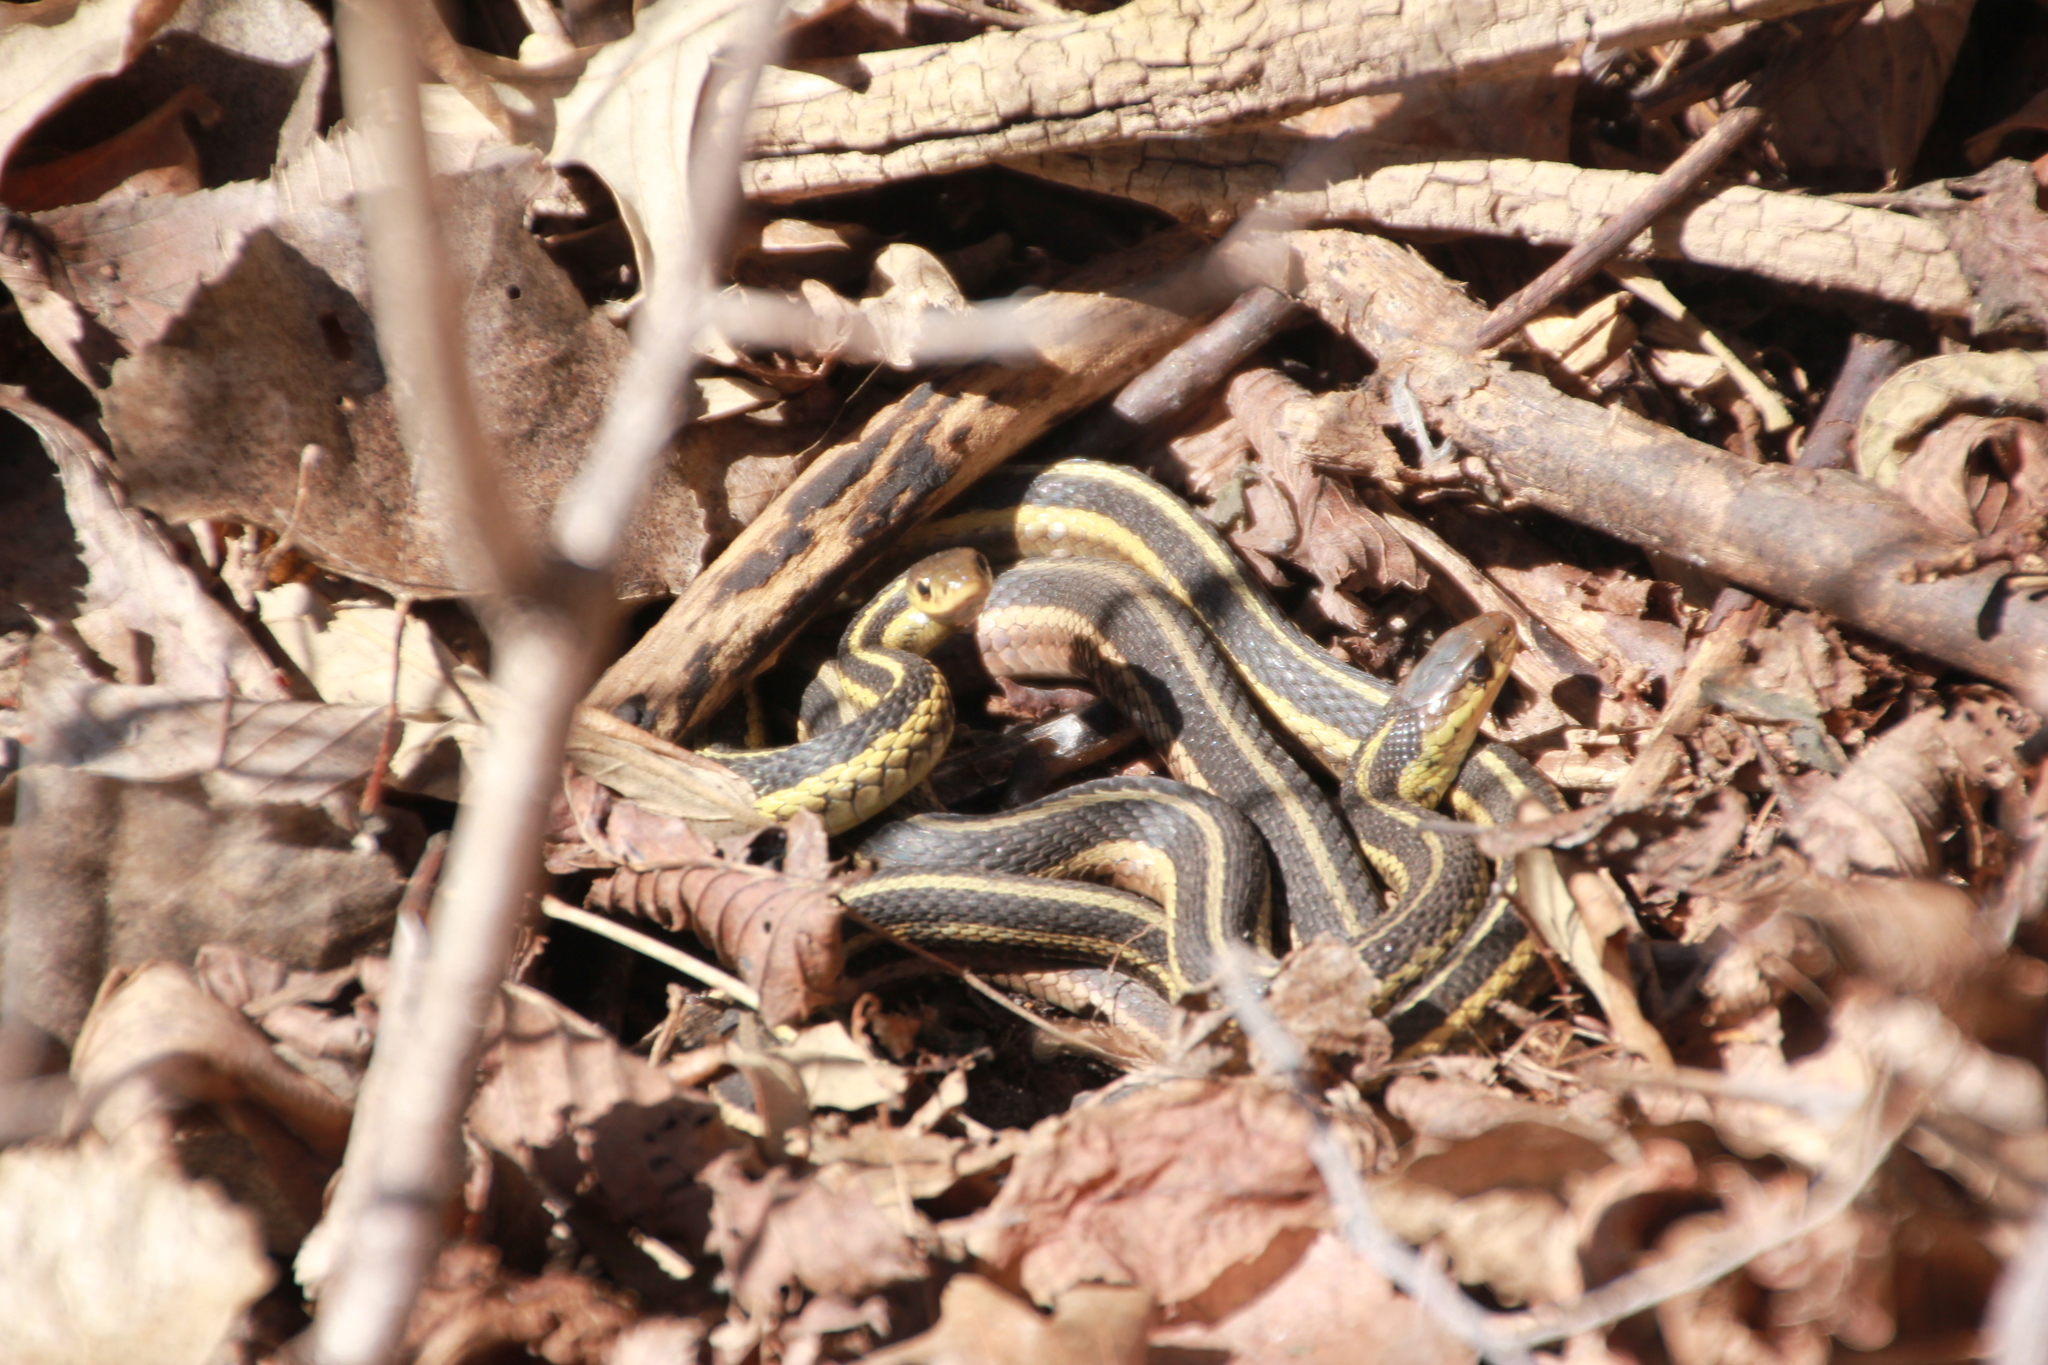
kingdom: Animalia
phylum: Chordata
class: Squamata
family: Colubridae
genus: Thamnophis
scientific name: Thamnophis sirtalis
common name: Common garter snake
